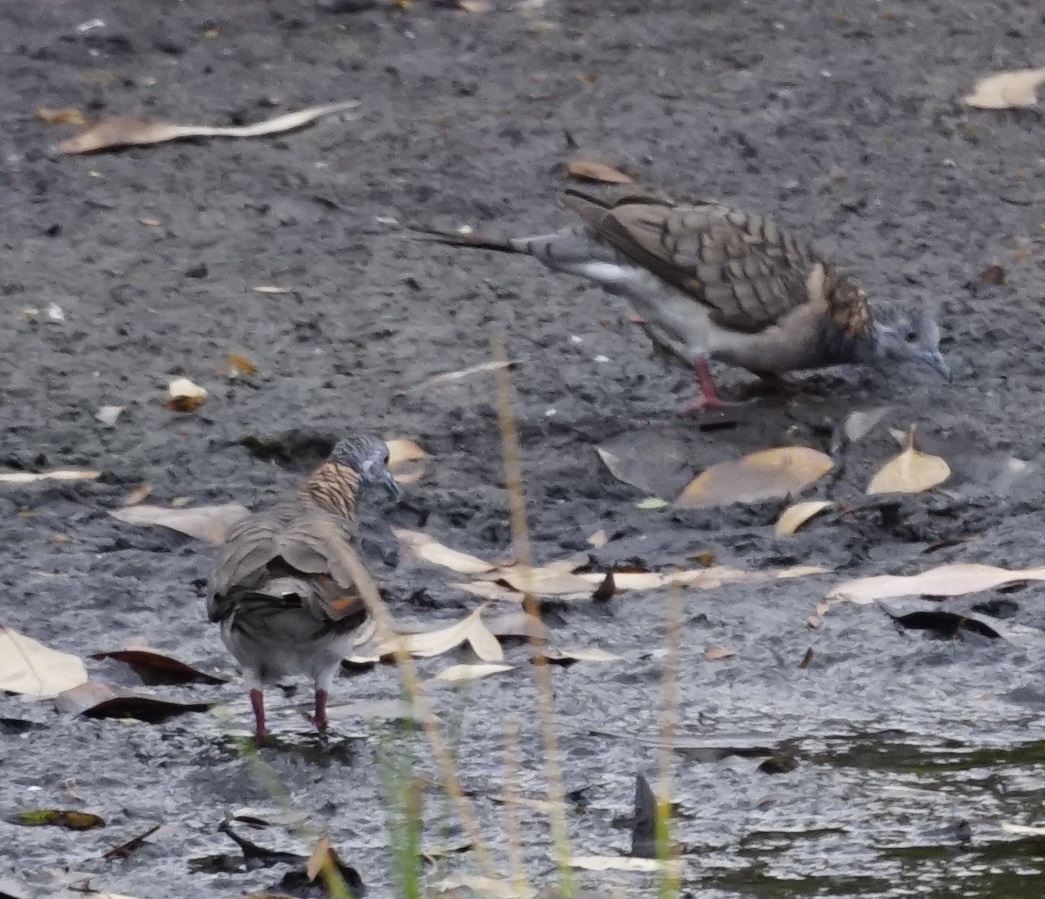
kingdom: Animalia
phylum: Chordata
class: Aves
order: Columbiformes
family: Columbidae
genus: Geopelia
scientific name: Geopelia humeralis
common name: Bar-shouldered dove
